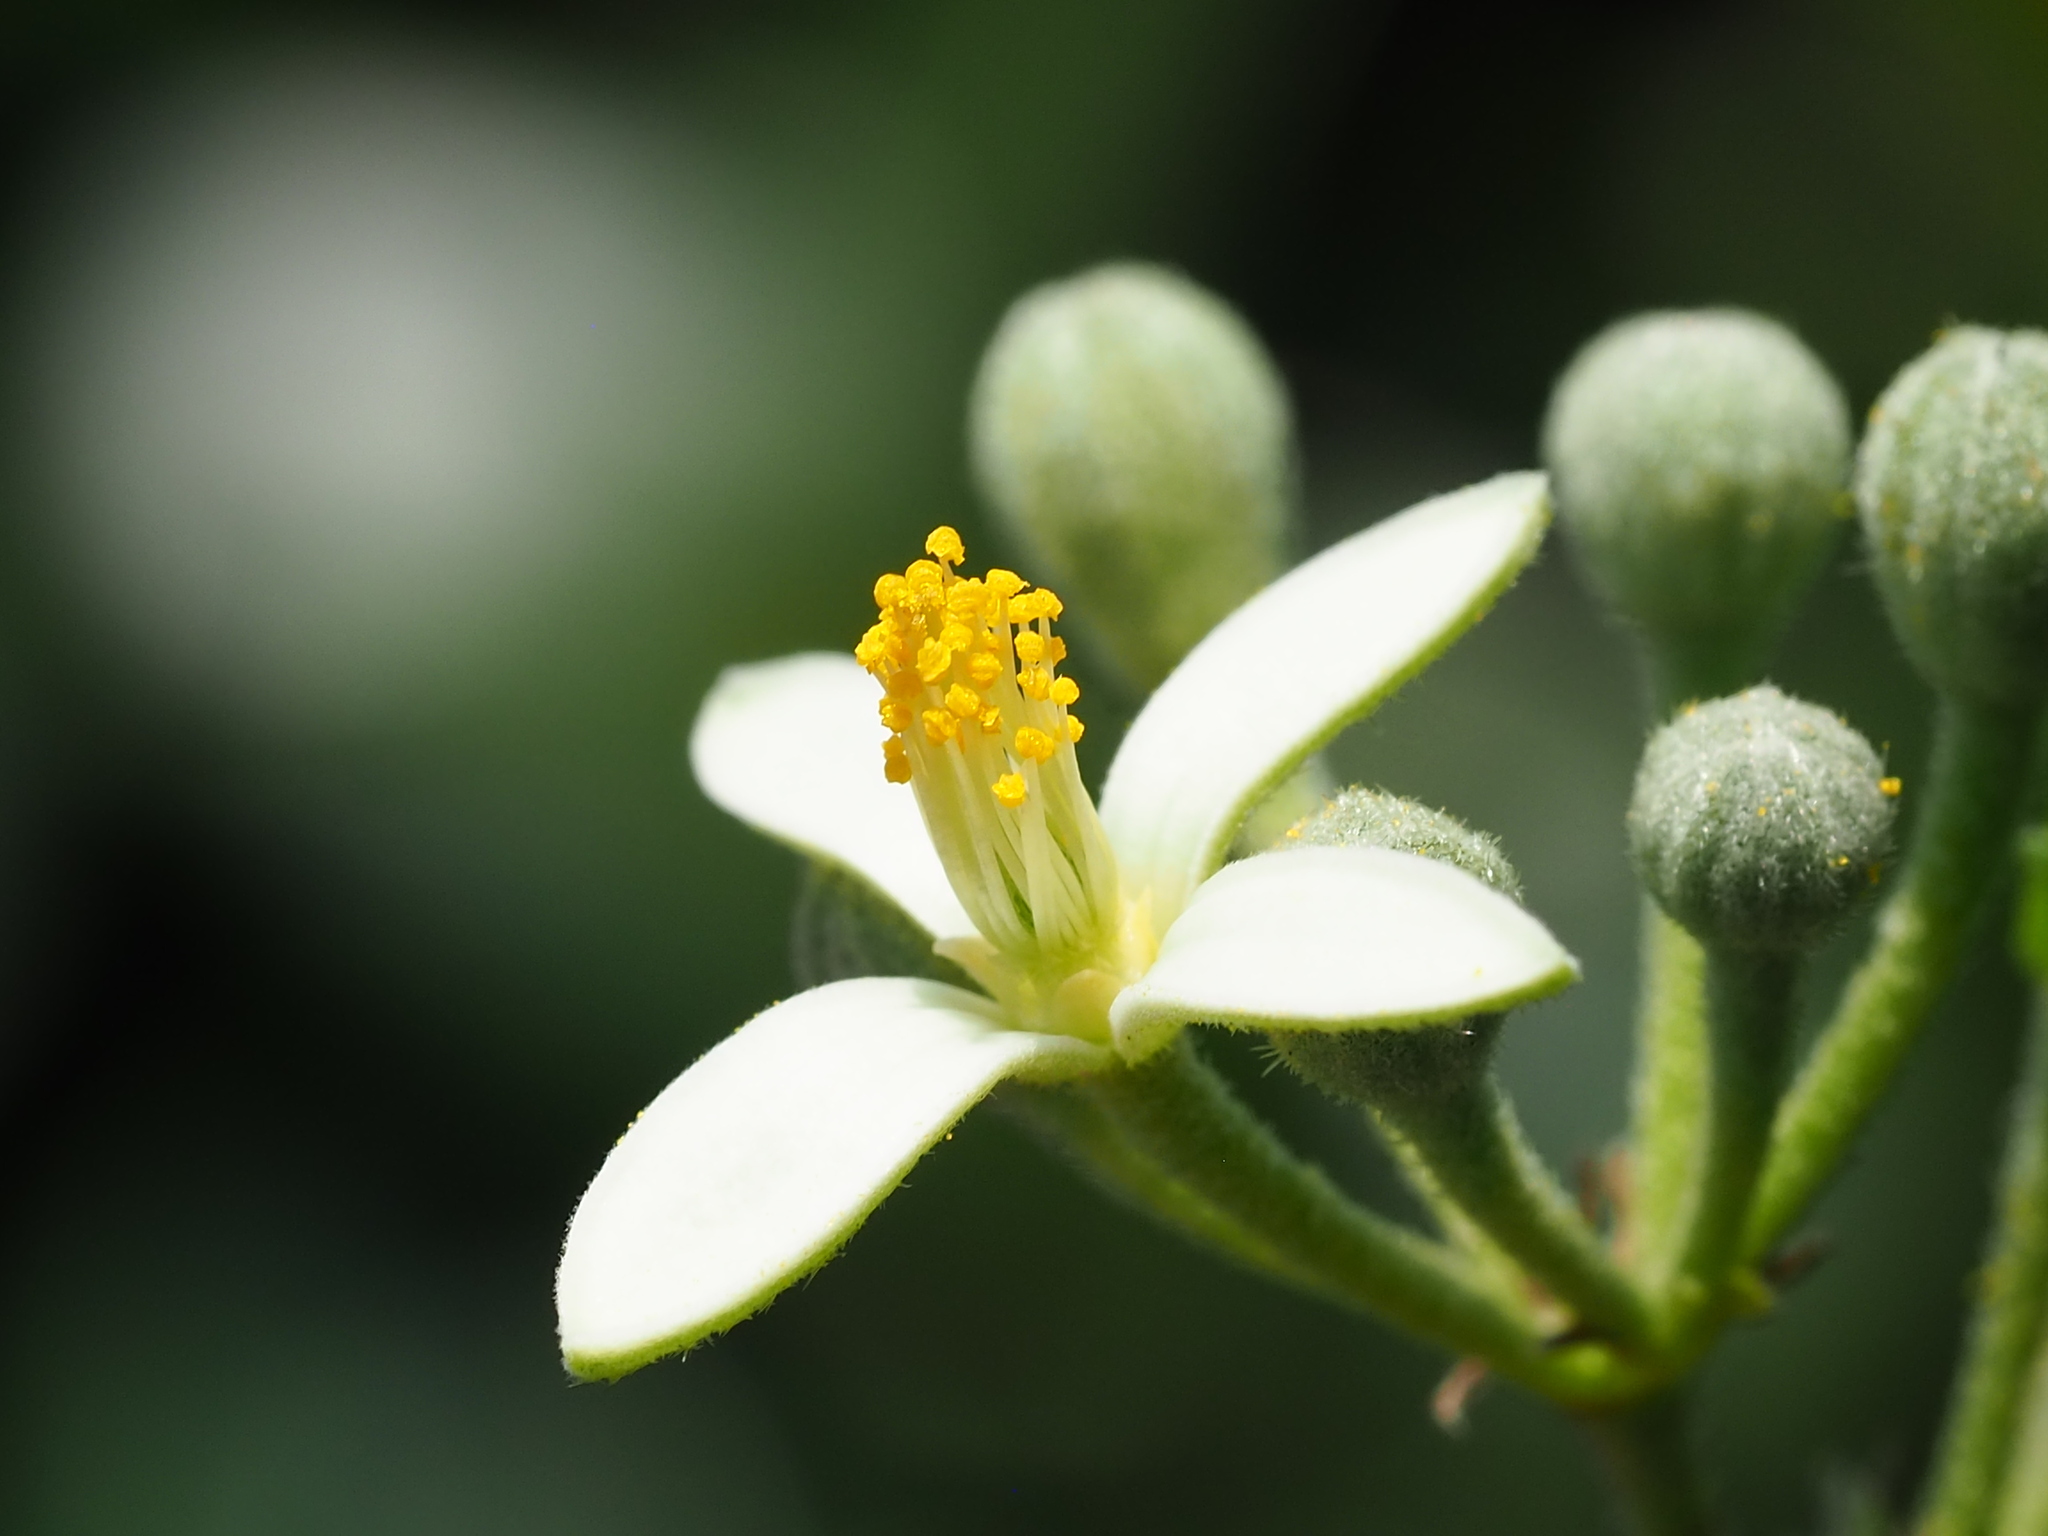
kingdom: Plantae
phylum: Tracheophyta
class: Magnoliopsida
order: Malvales
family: Malvaceae
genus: Grewia
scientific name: Grewia rhombifolia
